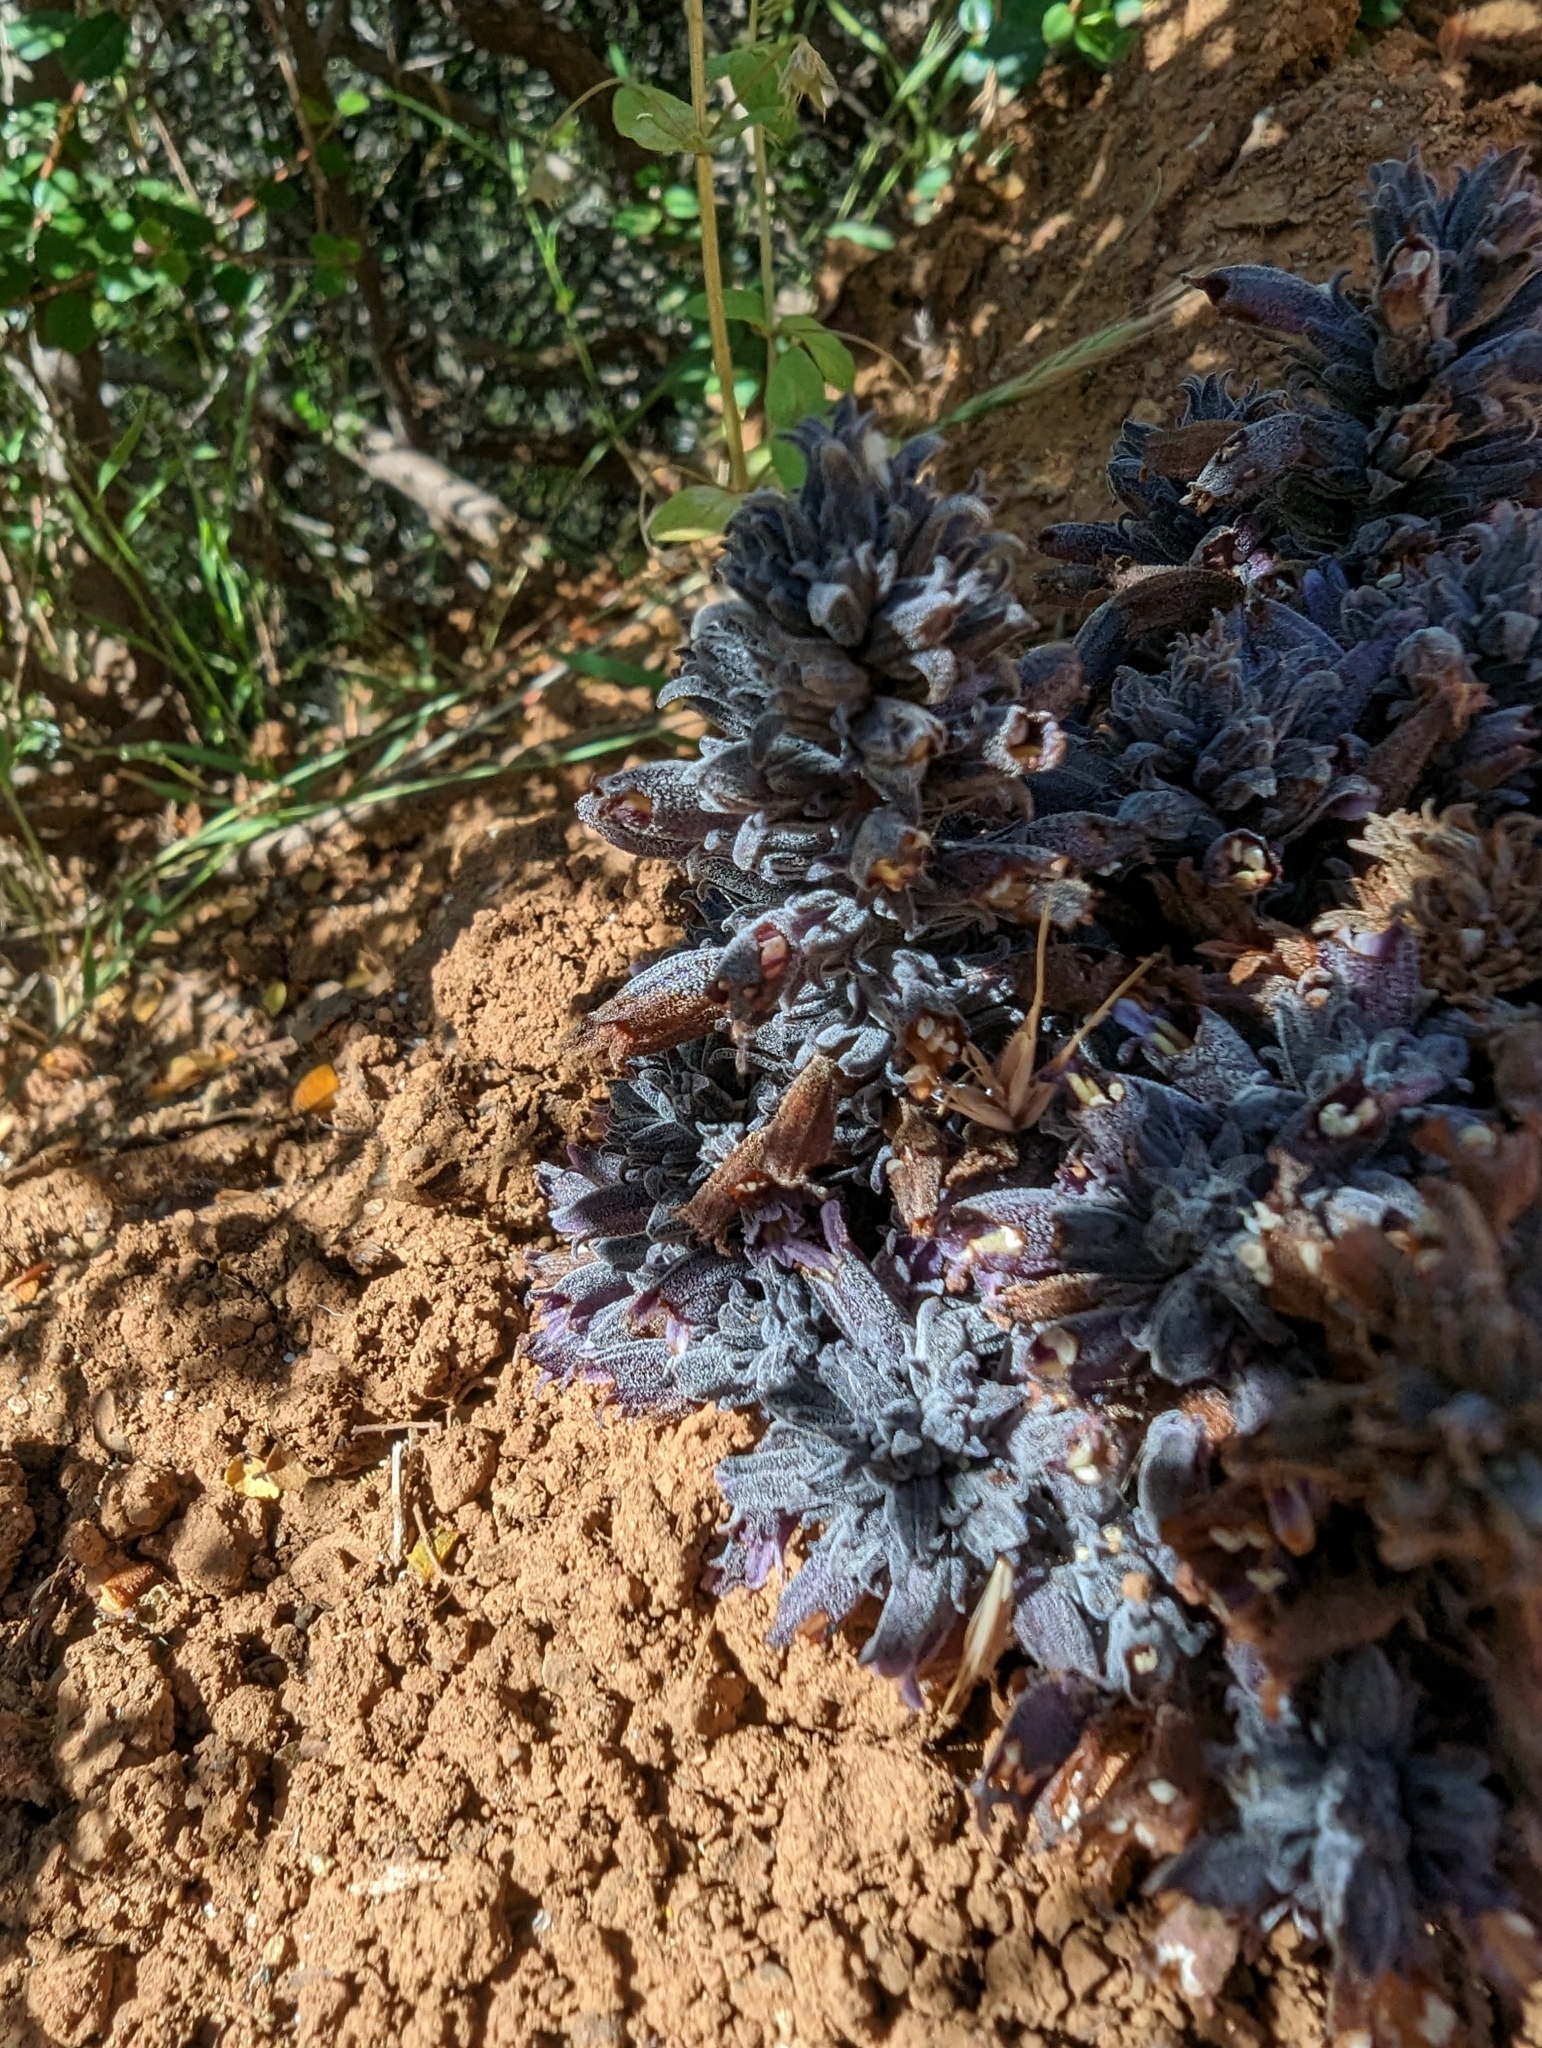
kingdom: Plantae
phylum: Tracheophyta
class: Magnoliopsida
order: Lamiales
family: Orobanchaceae
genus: Aphyllon
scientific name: Aphyllon tuberosum
